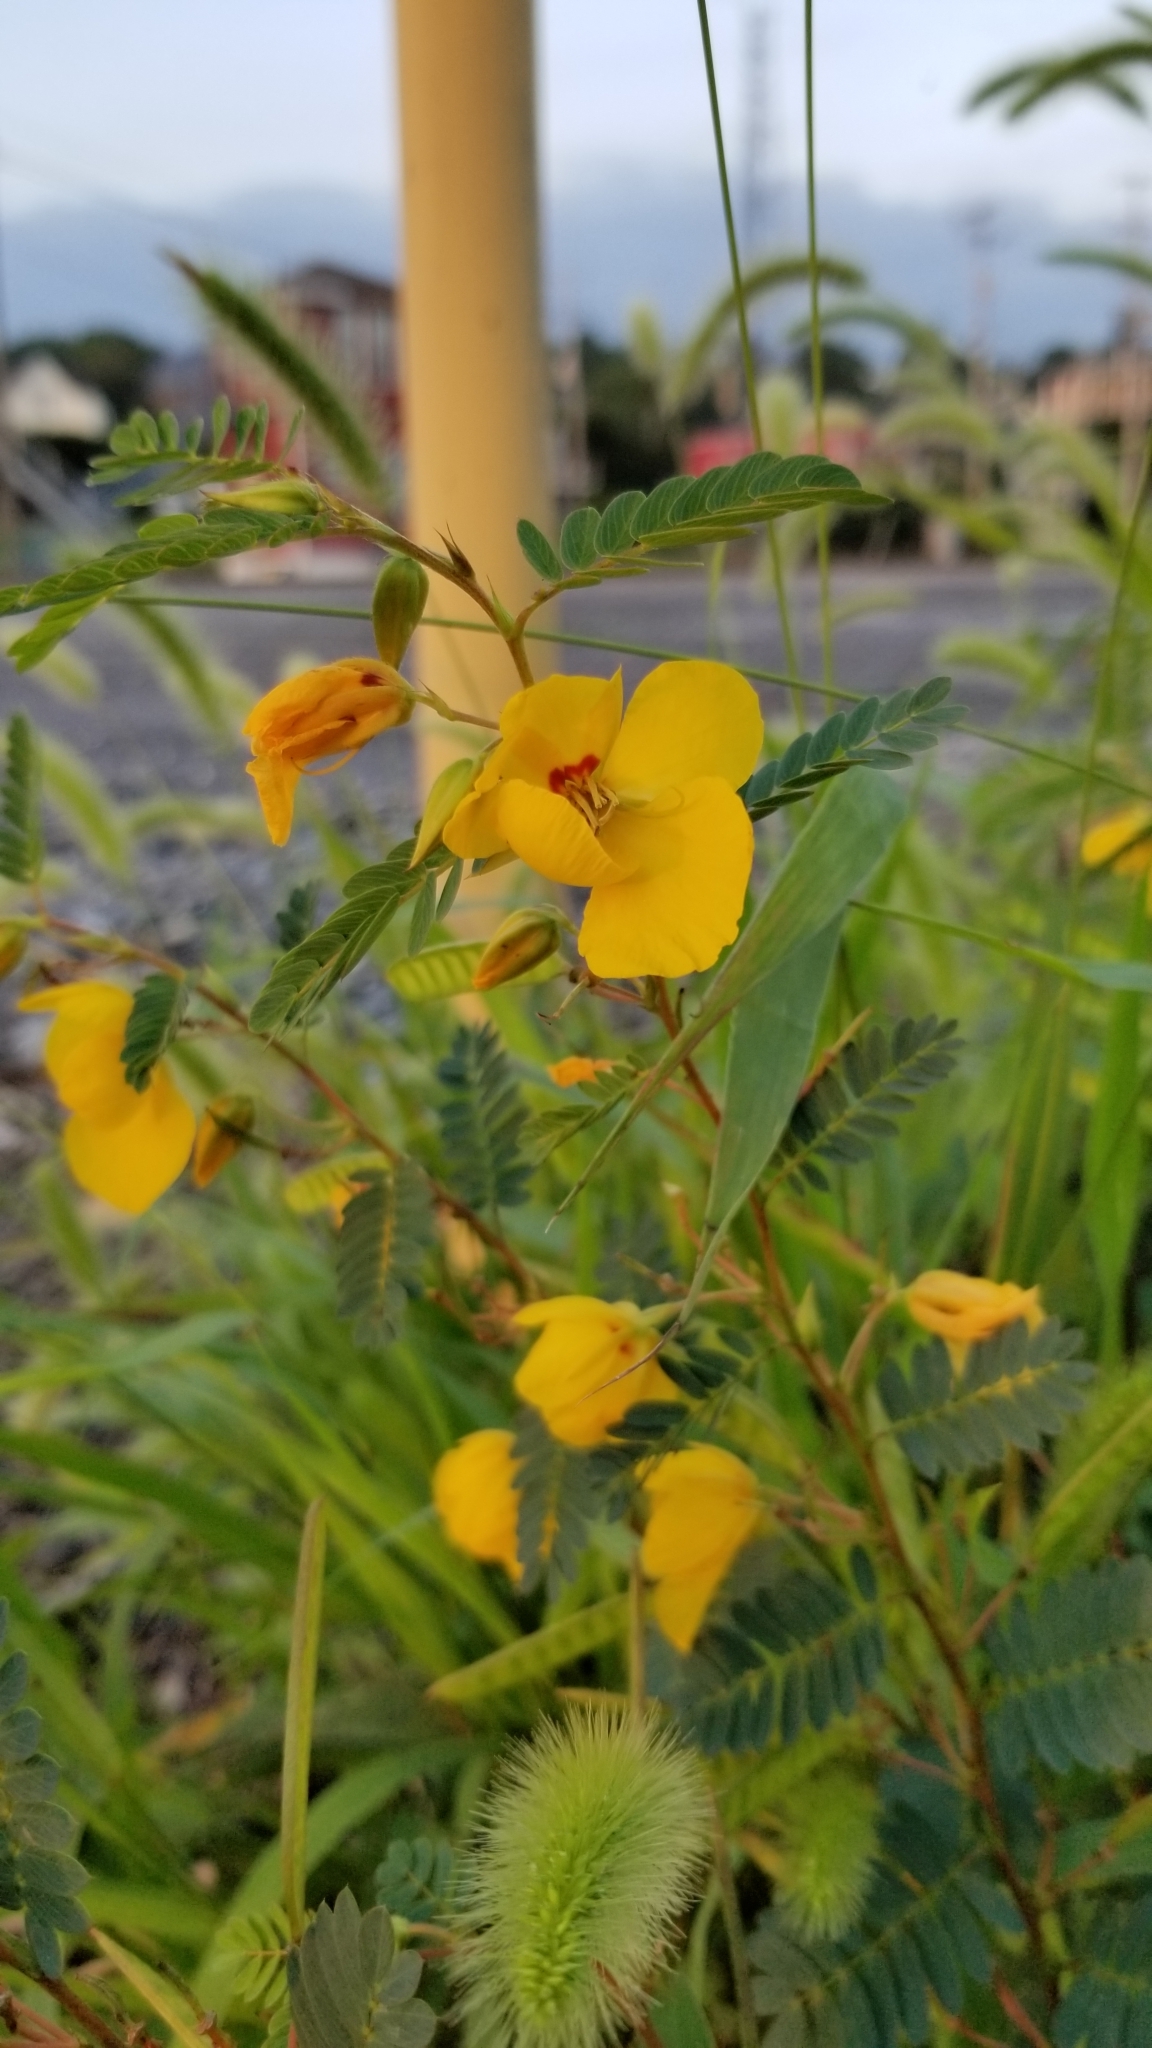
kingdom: Plantae
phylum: Tracheophyta
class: Magnoliopsida
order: Fabales
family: Fabaceae
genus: Chamaecrista
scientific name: Chamaecrista fasciculata
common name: Golden cassia
